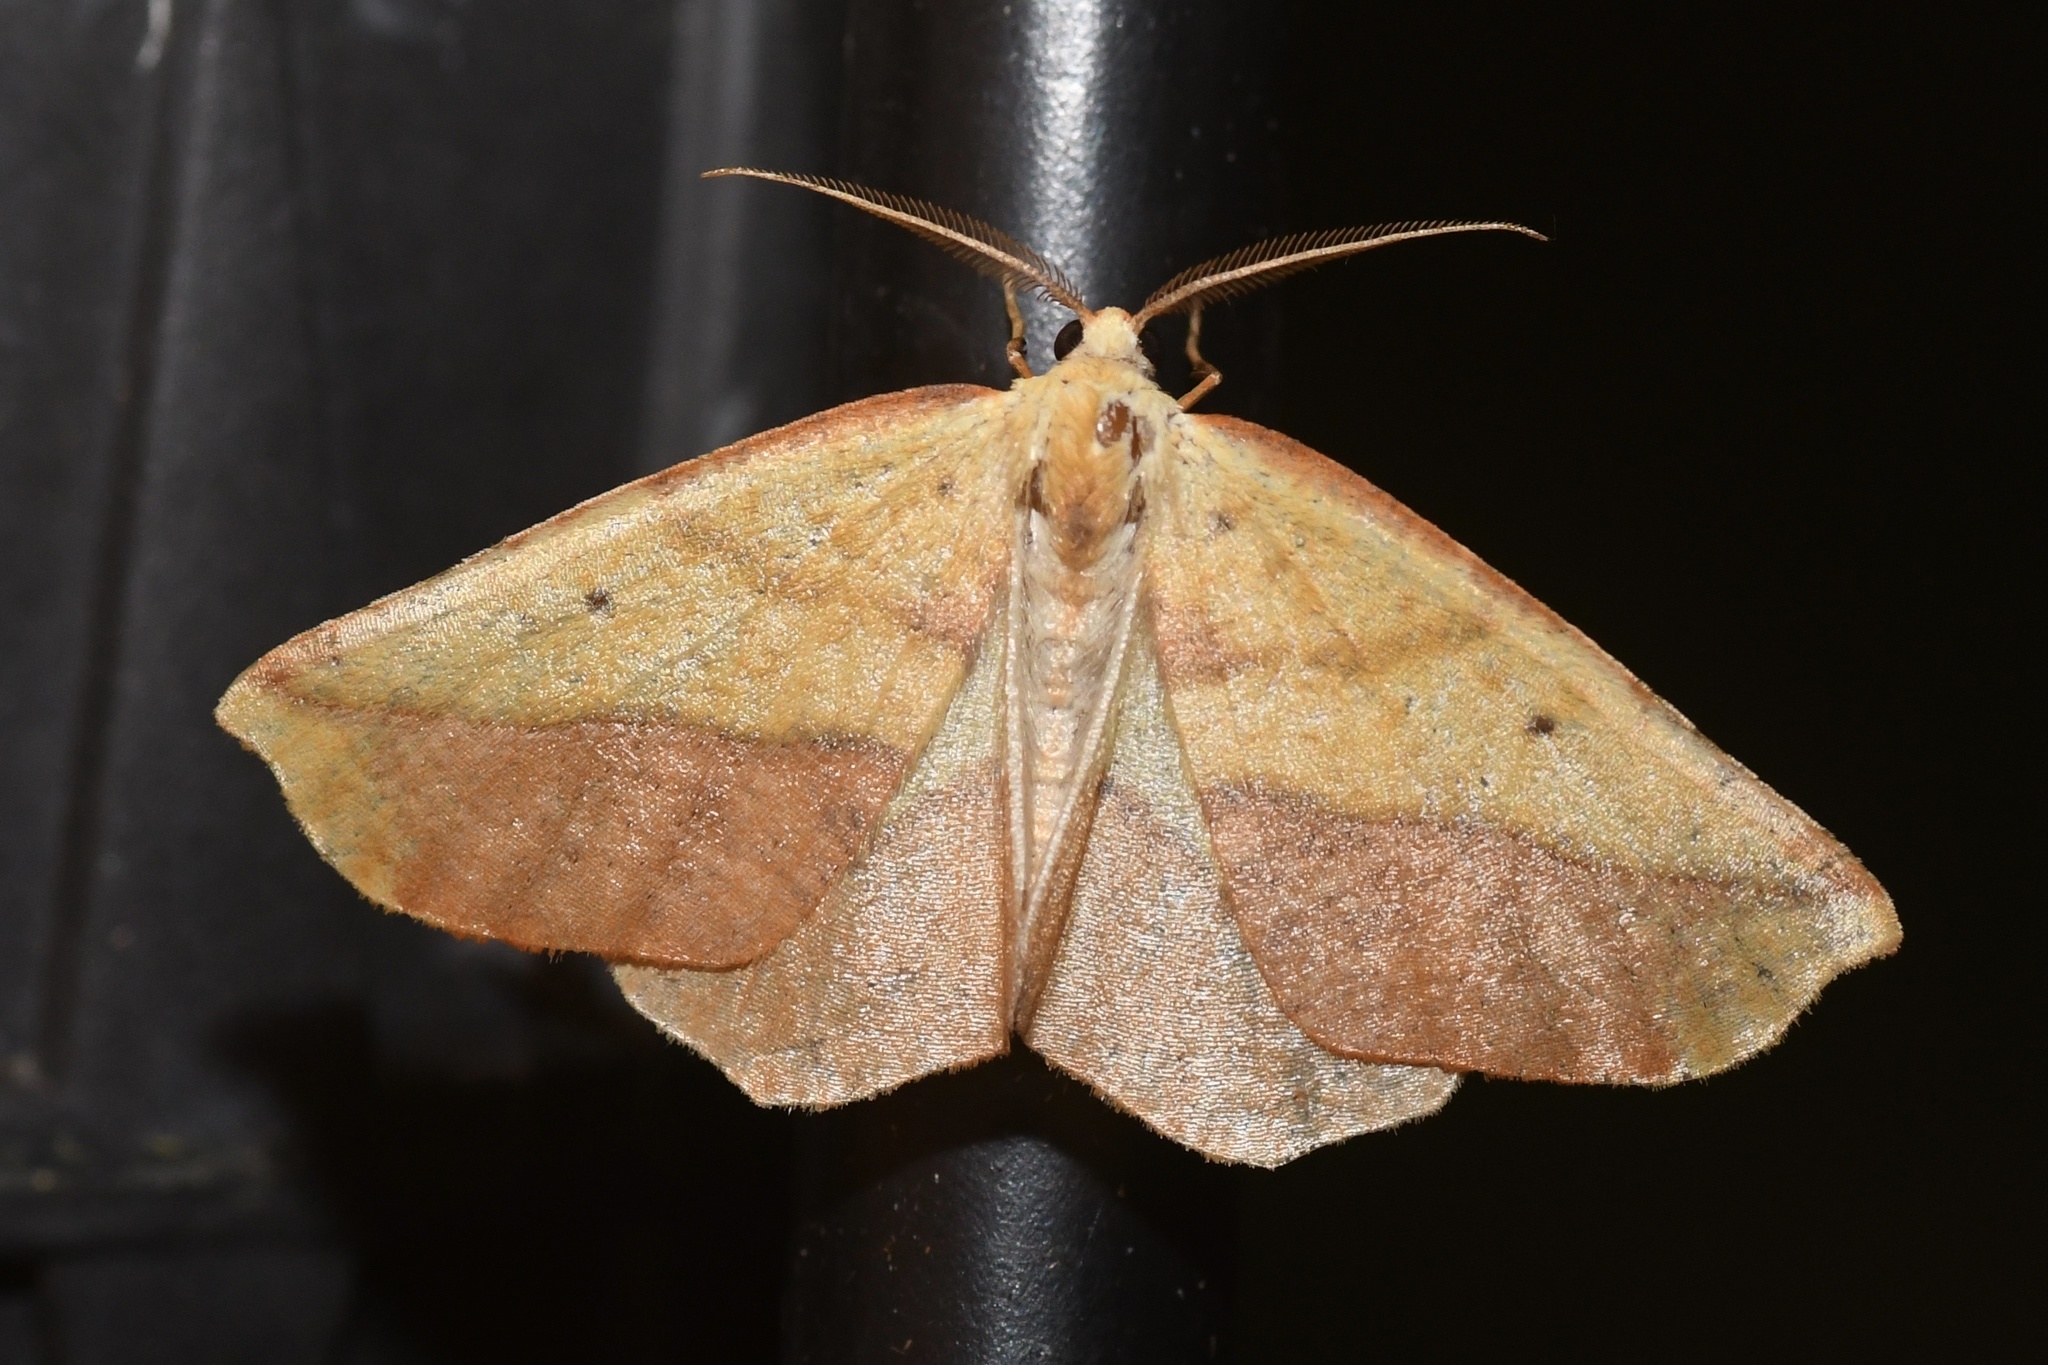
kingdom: Animalia
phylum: Arthropoda
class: Insecta
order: Lepidoptera
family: Geometridae
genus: Sicya
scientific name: Sicya macularia
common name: Sharp-lined yellow
